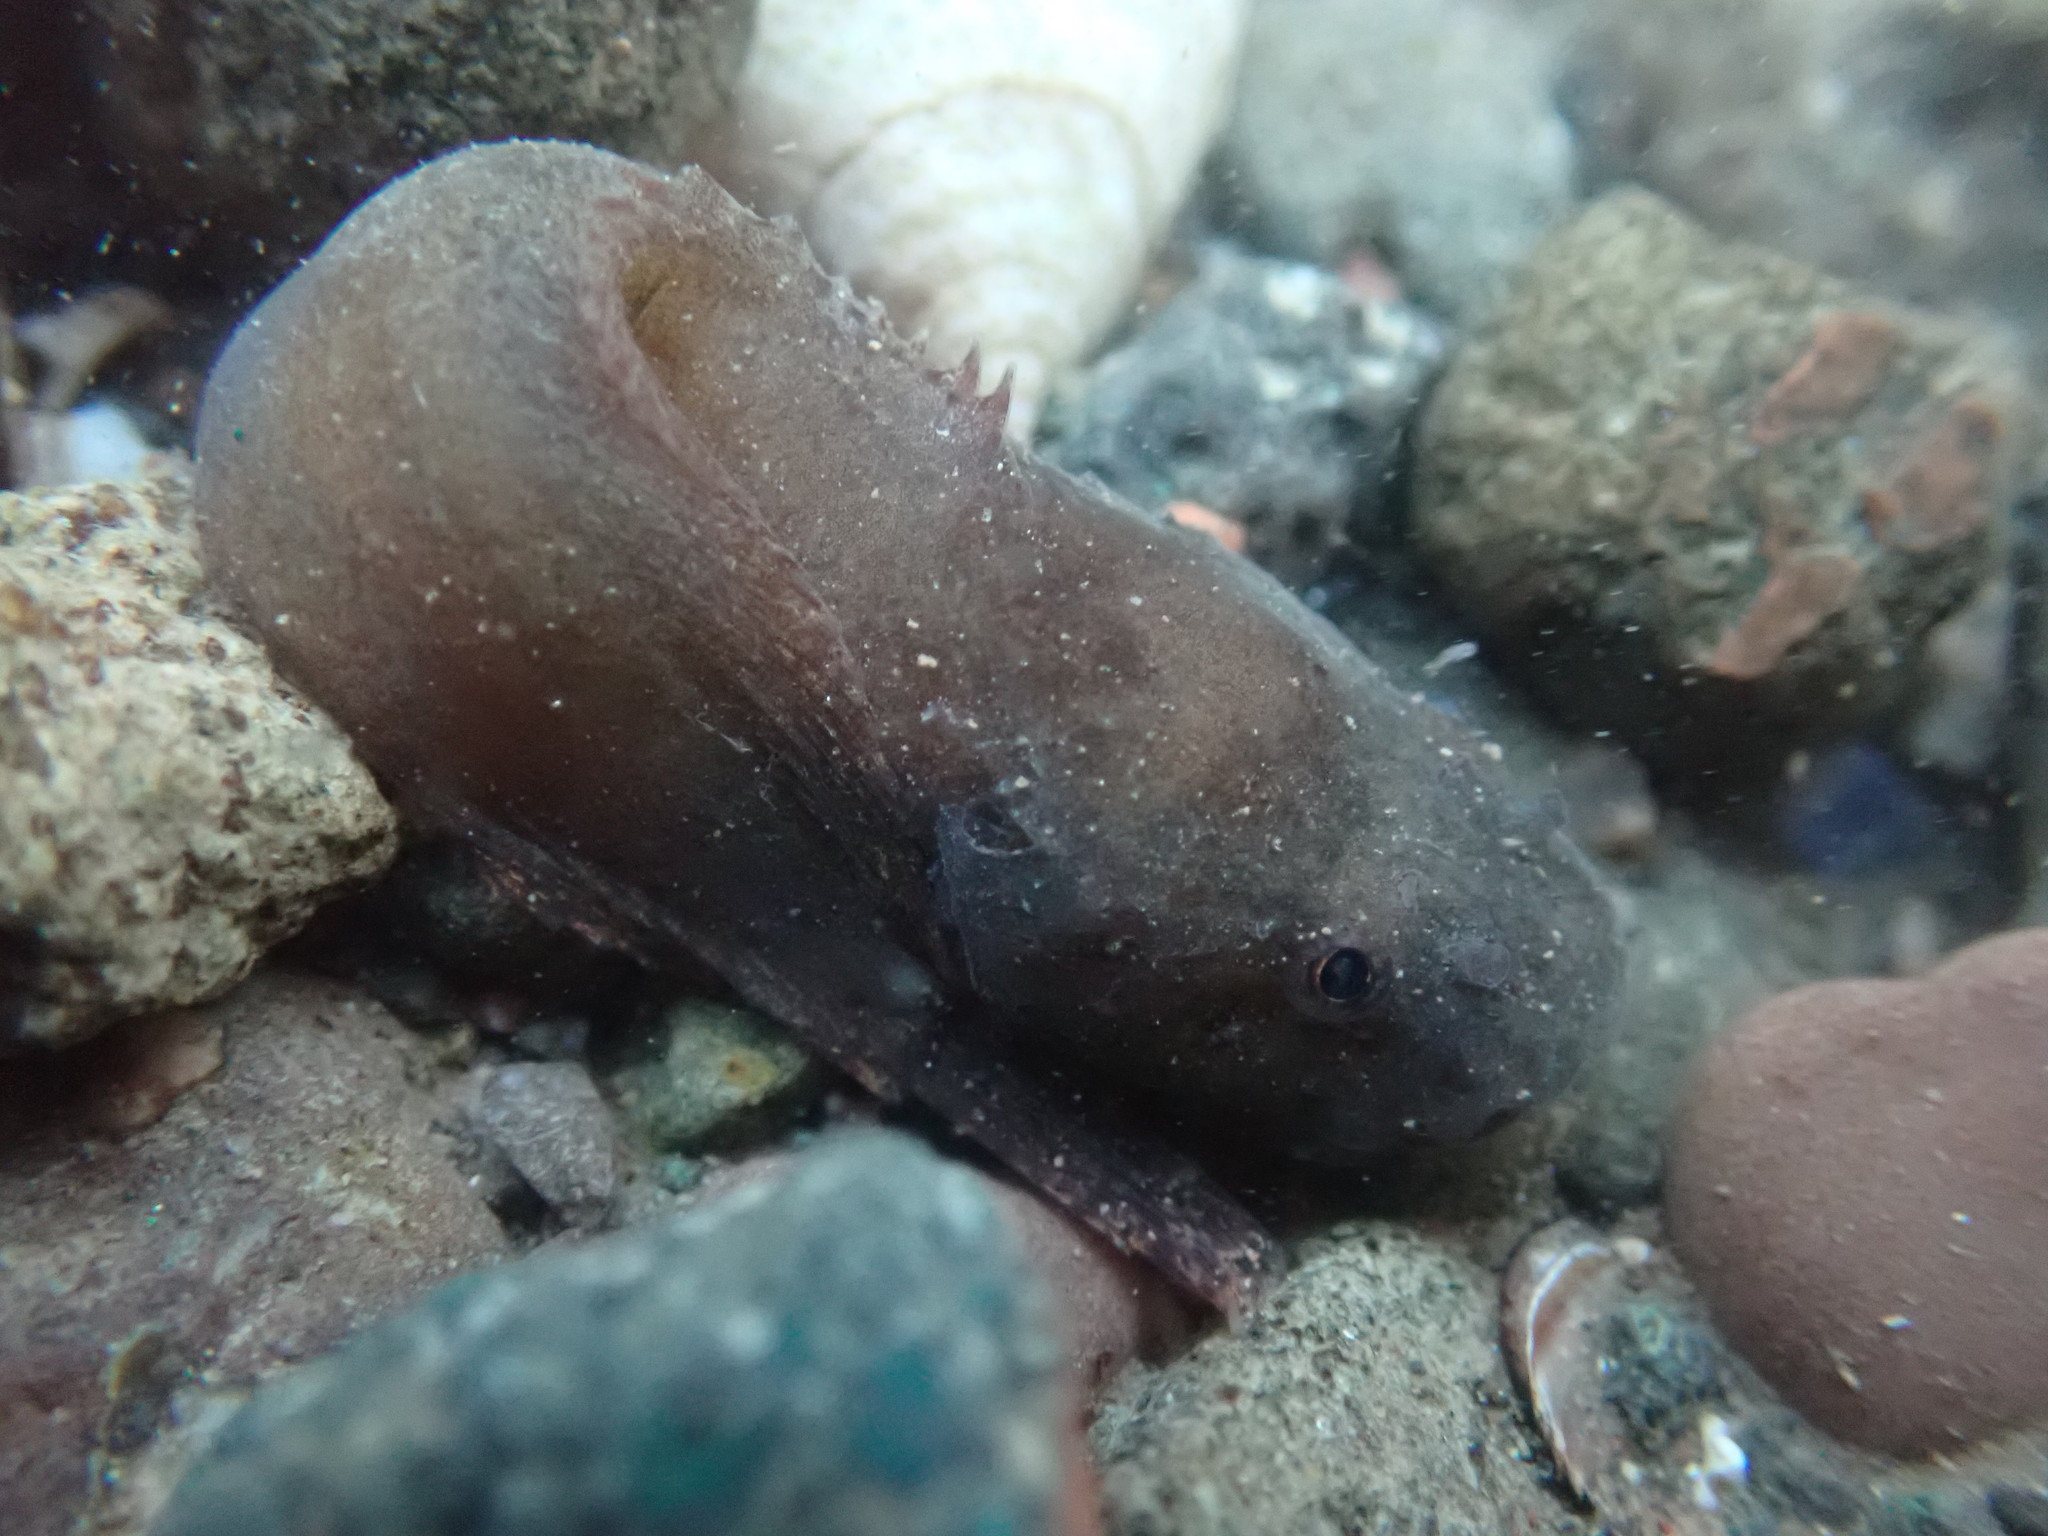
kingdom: Animalia
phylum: Chordata
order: Scorpaeniformes
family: Liparidae
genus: Liparis
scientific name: Liparis atlanticus
